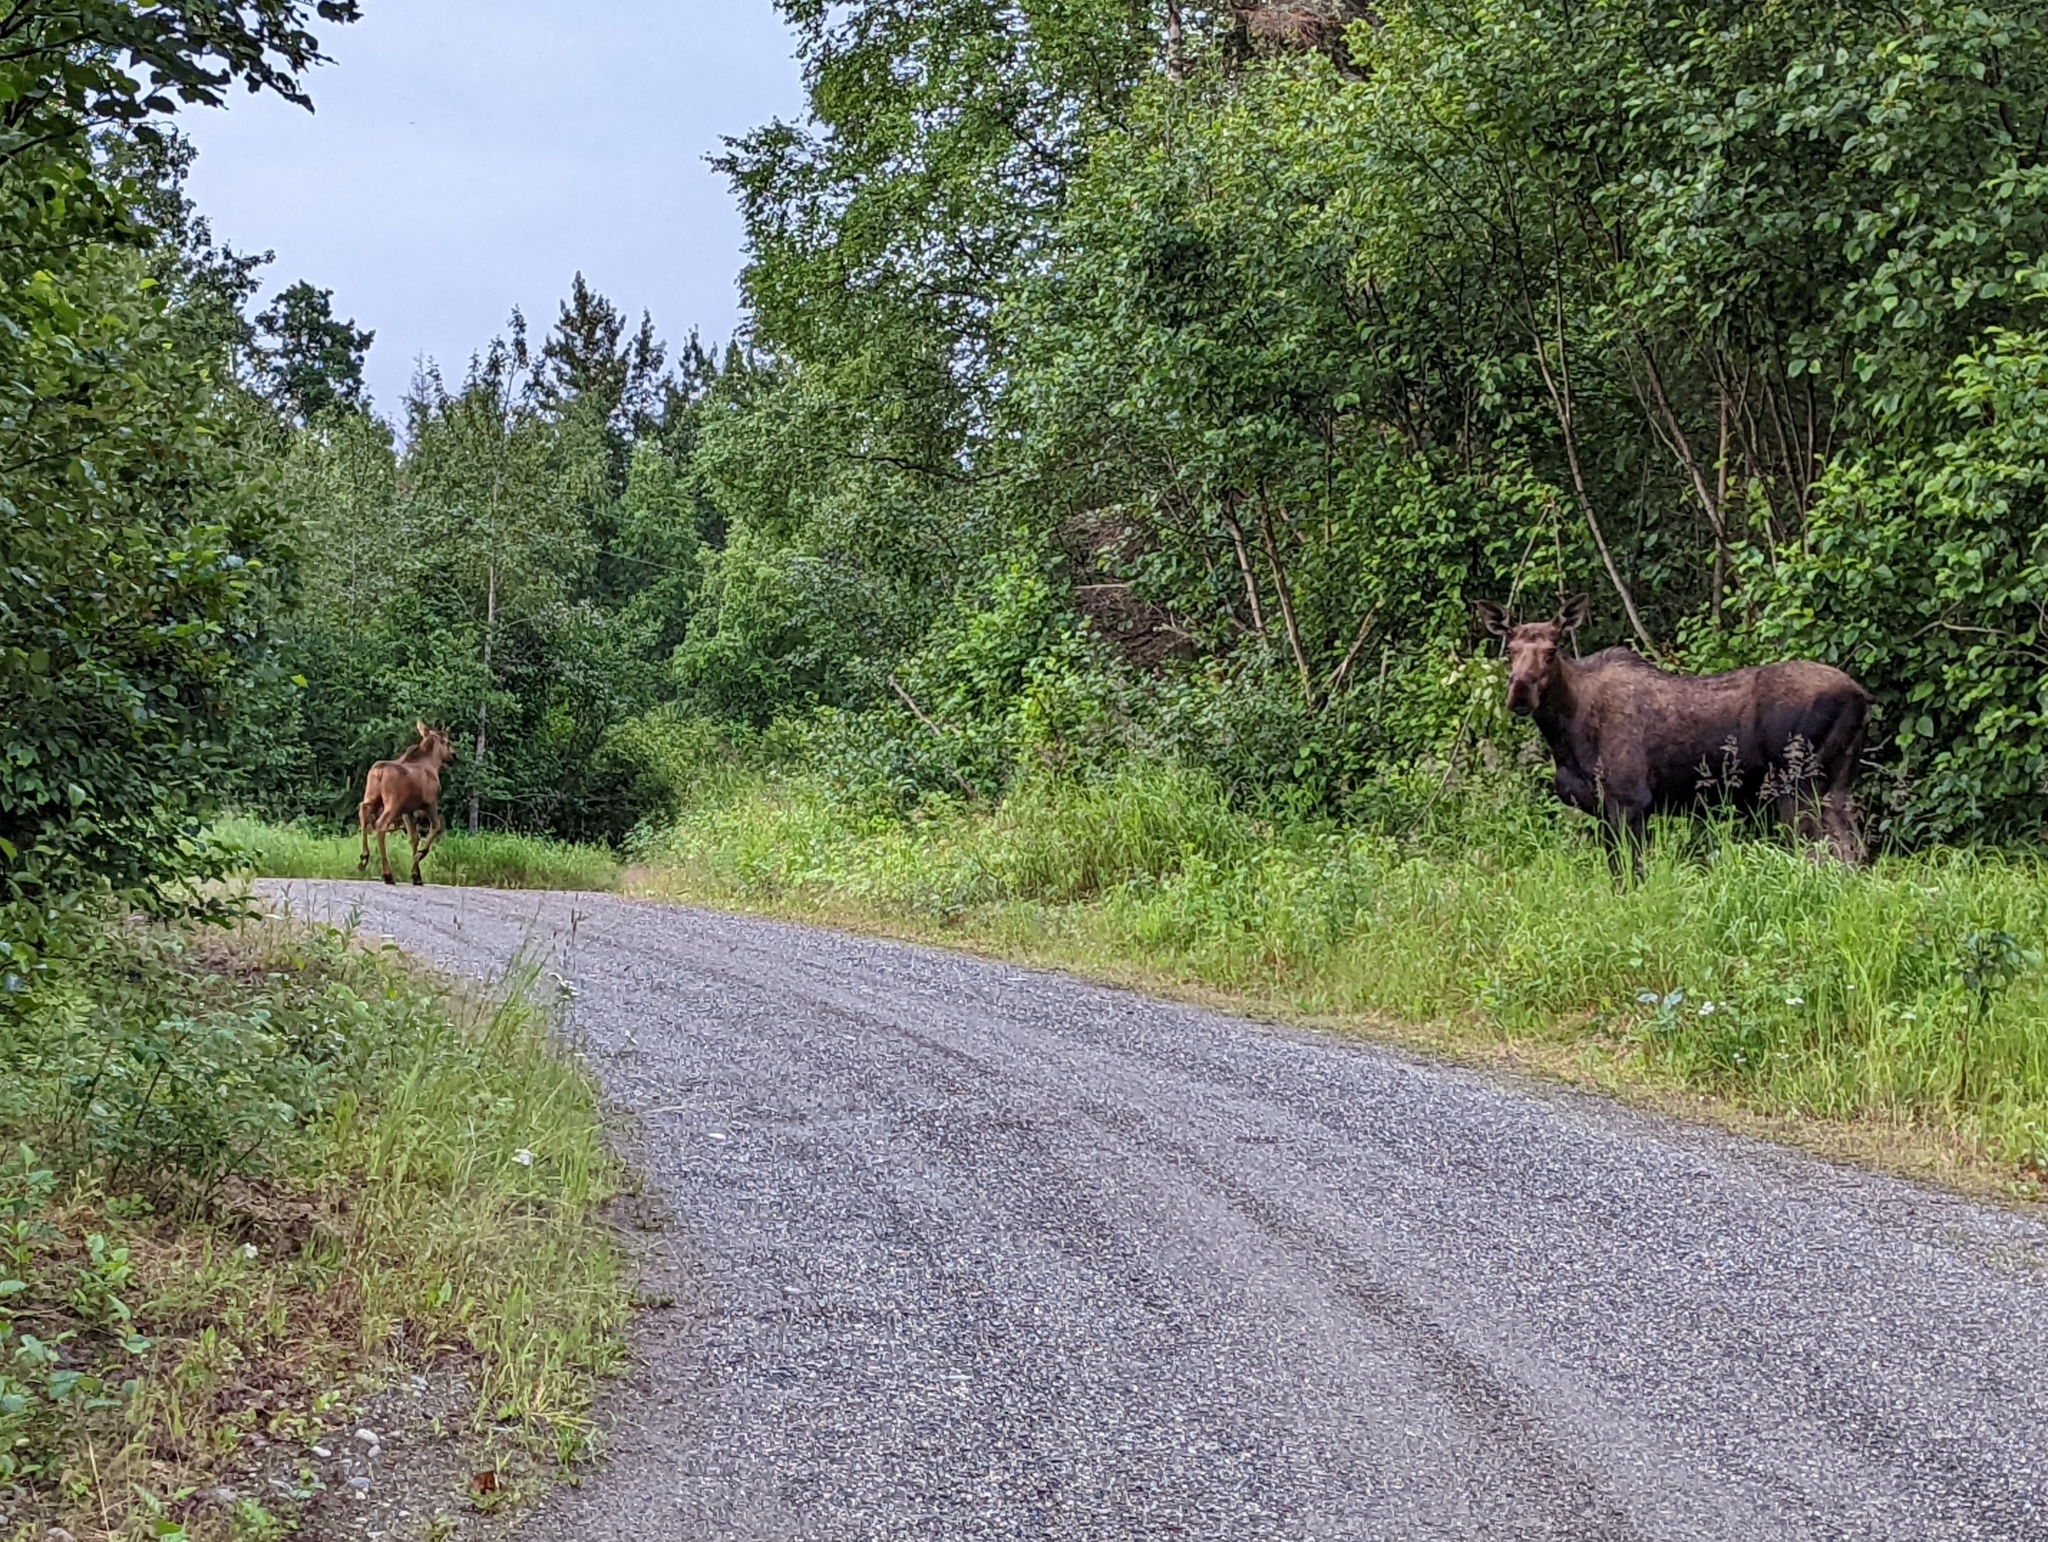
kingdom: Animalia
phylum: Chordata
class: Mammalia
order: Artiodactyla
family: Cervidae
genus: Alces
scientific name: Alces alces
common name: Moose
